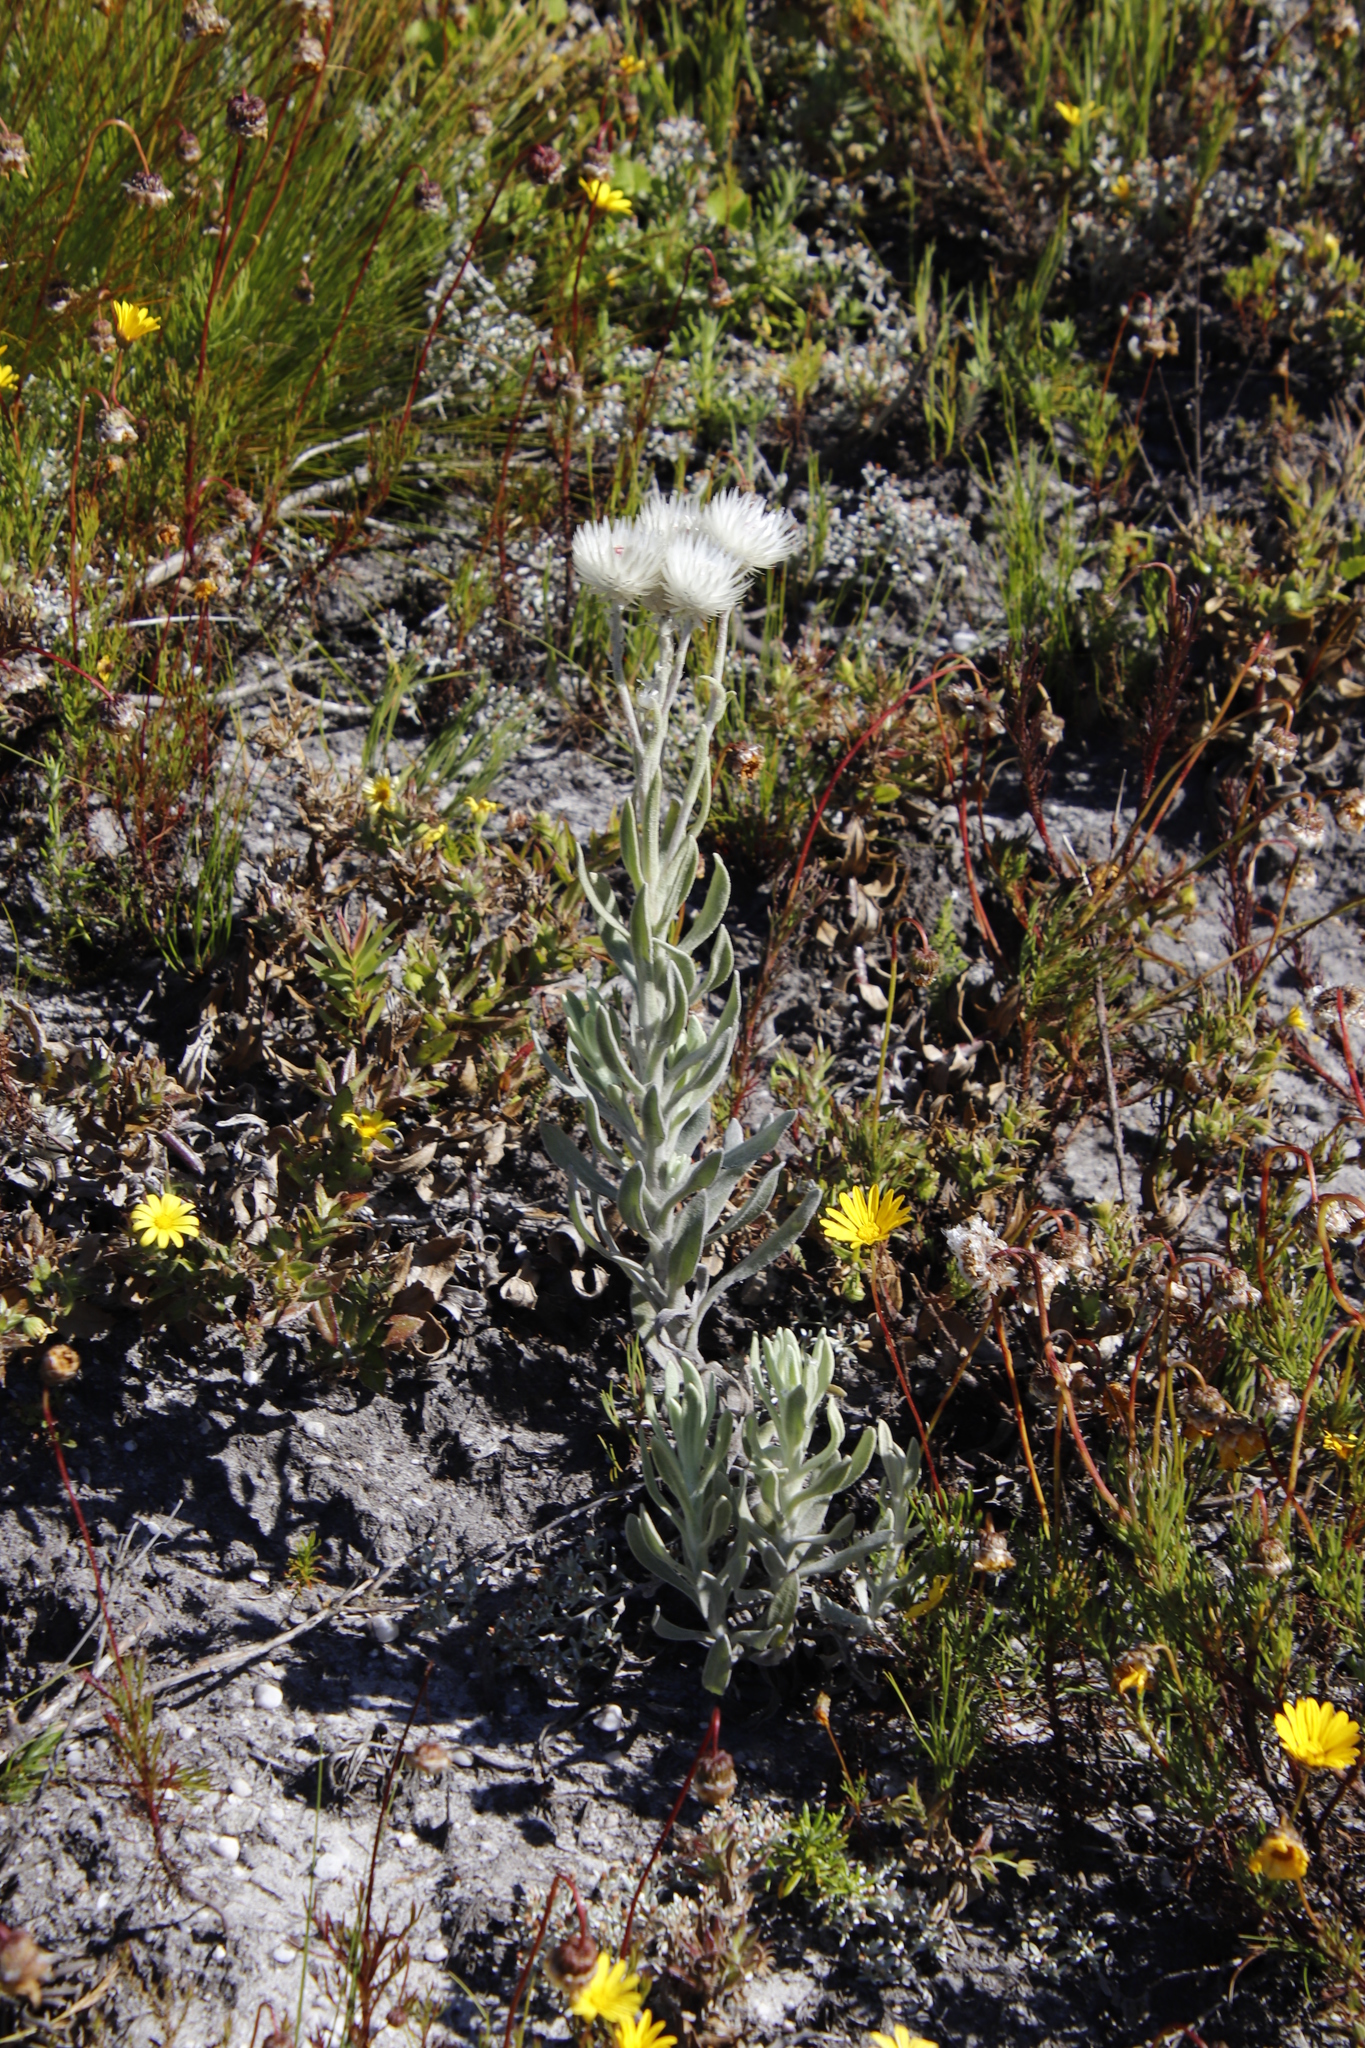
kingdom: Plantae
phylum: Tracheophyta
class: Magnoliopsida
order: Asterales
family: Asteraceae
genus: Syncarpha
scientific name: Syncarpha vestita
